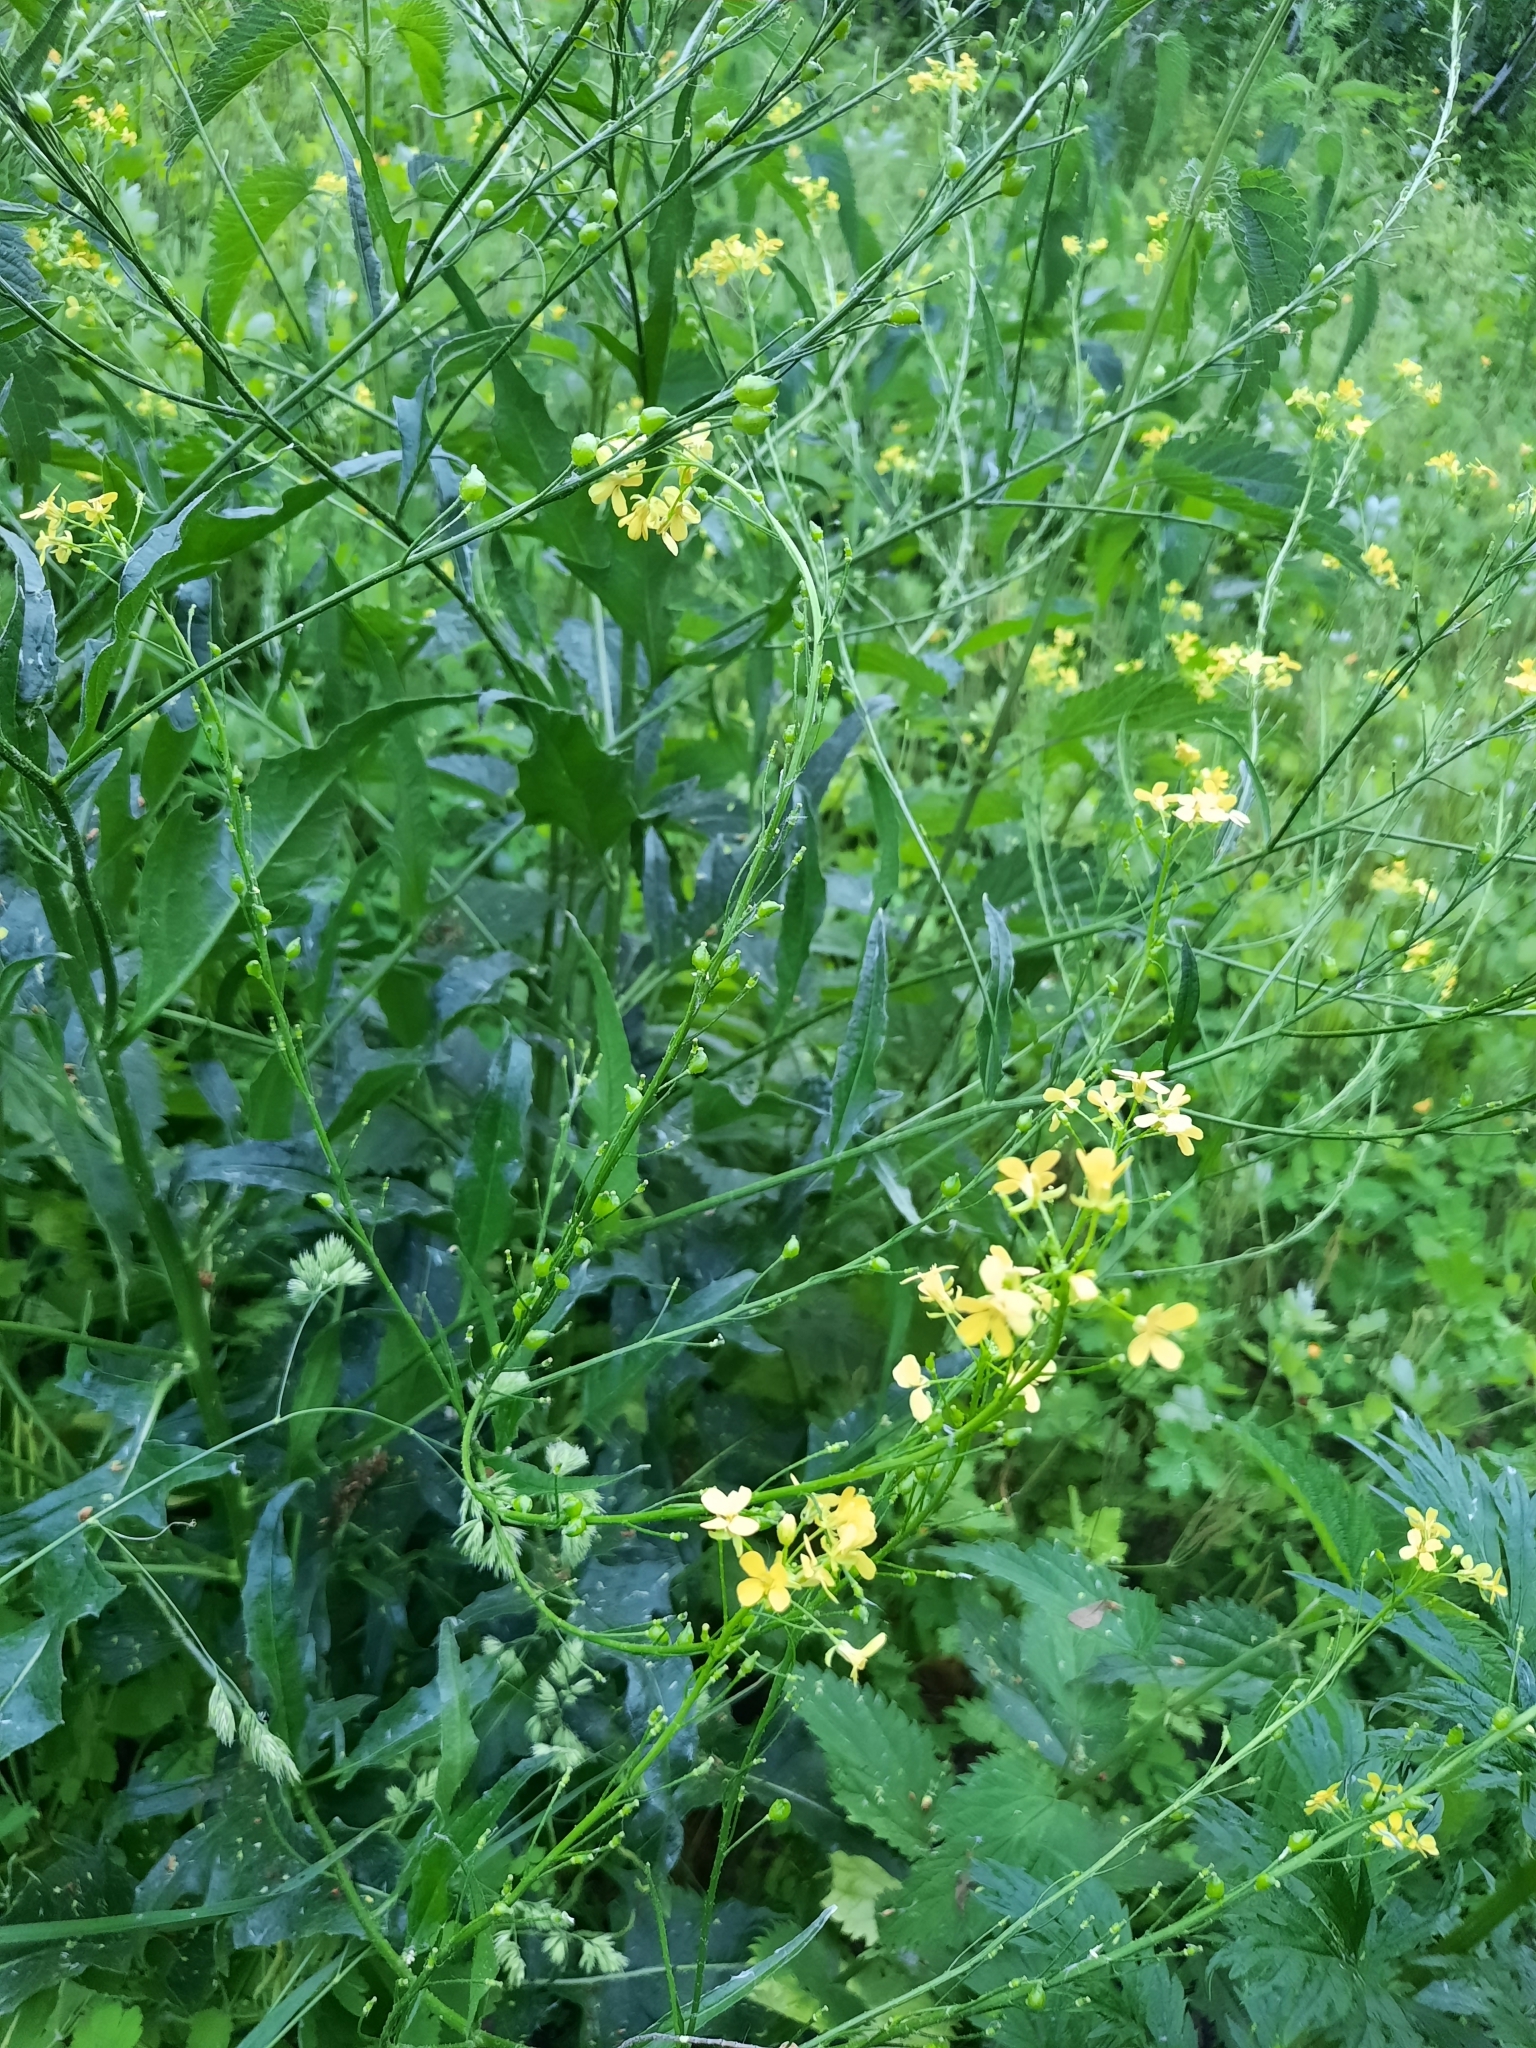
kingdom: Plantae
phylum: Tracheophyta
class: Magnoliopsida
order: Brassicales
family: Brassicaceae
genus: Bunias
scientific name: Bunias orientalis
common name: Warty-cabbage
